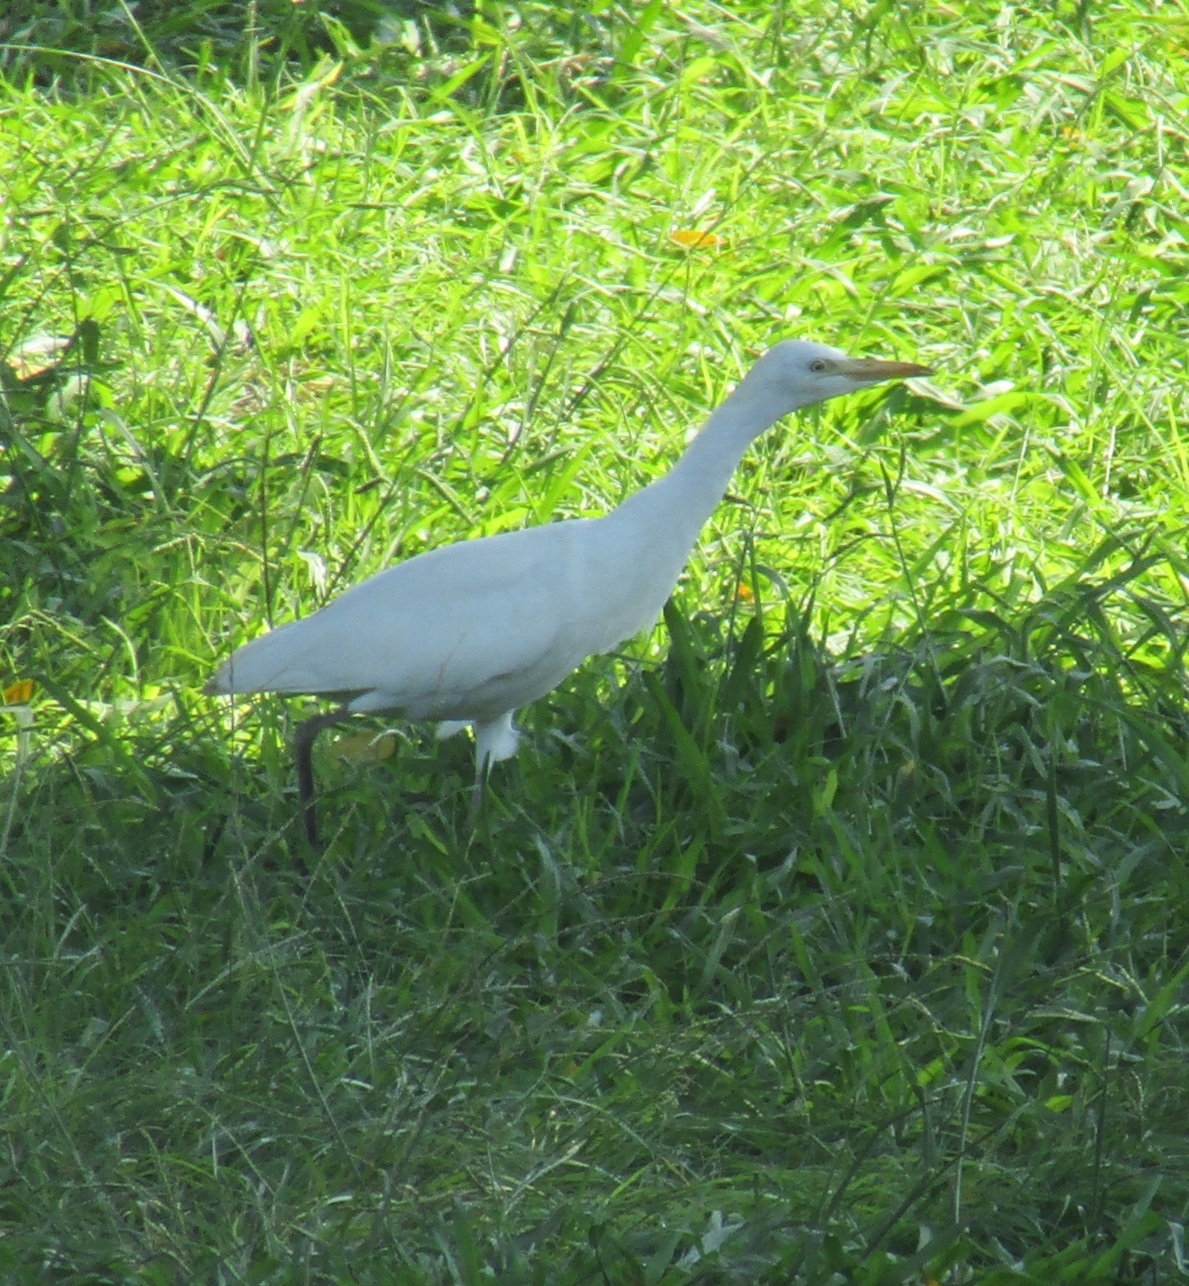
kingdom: Animalia
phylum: Chordata
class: Aves
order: Pelecaniformes
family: Ardeidae
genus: Bubulcus
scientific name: Bubulcus ibis
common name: Cattle egret
